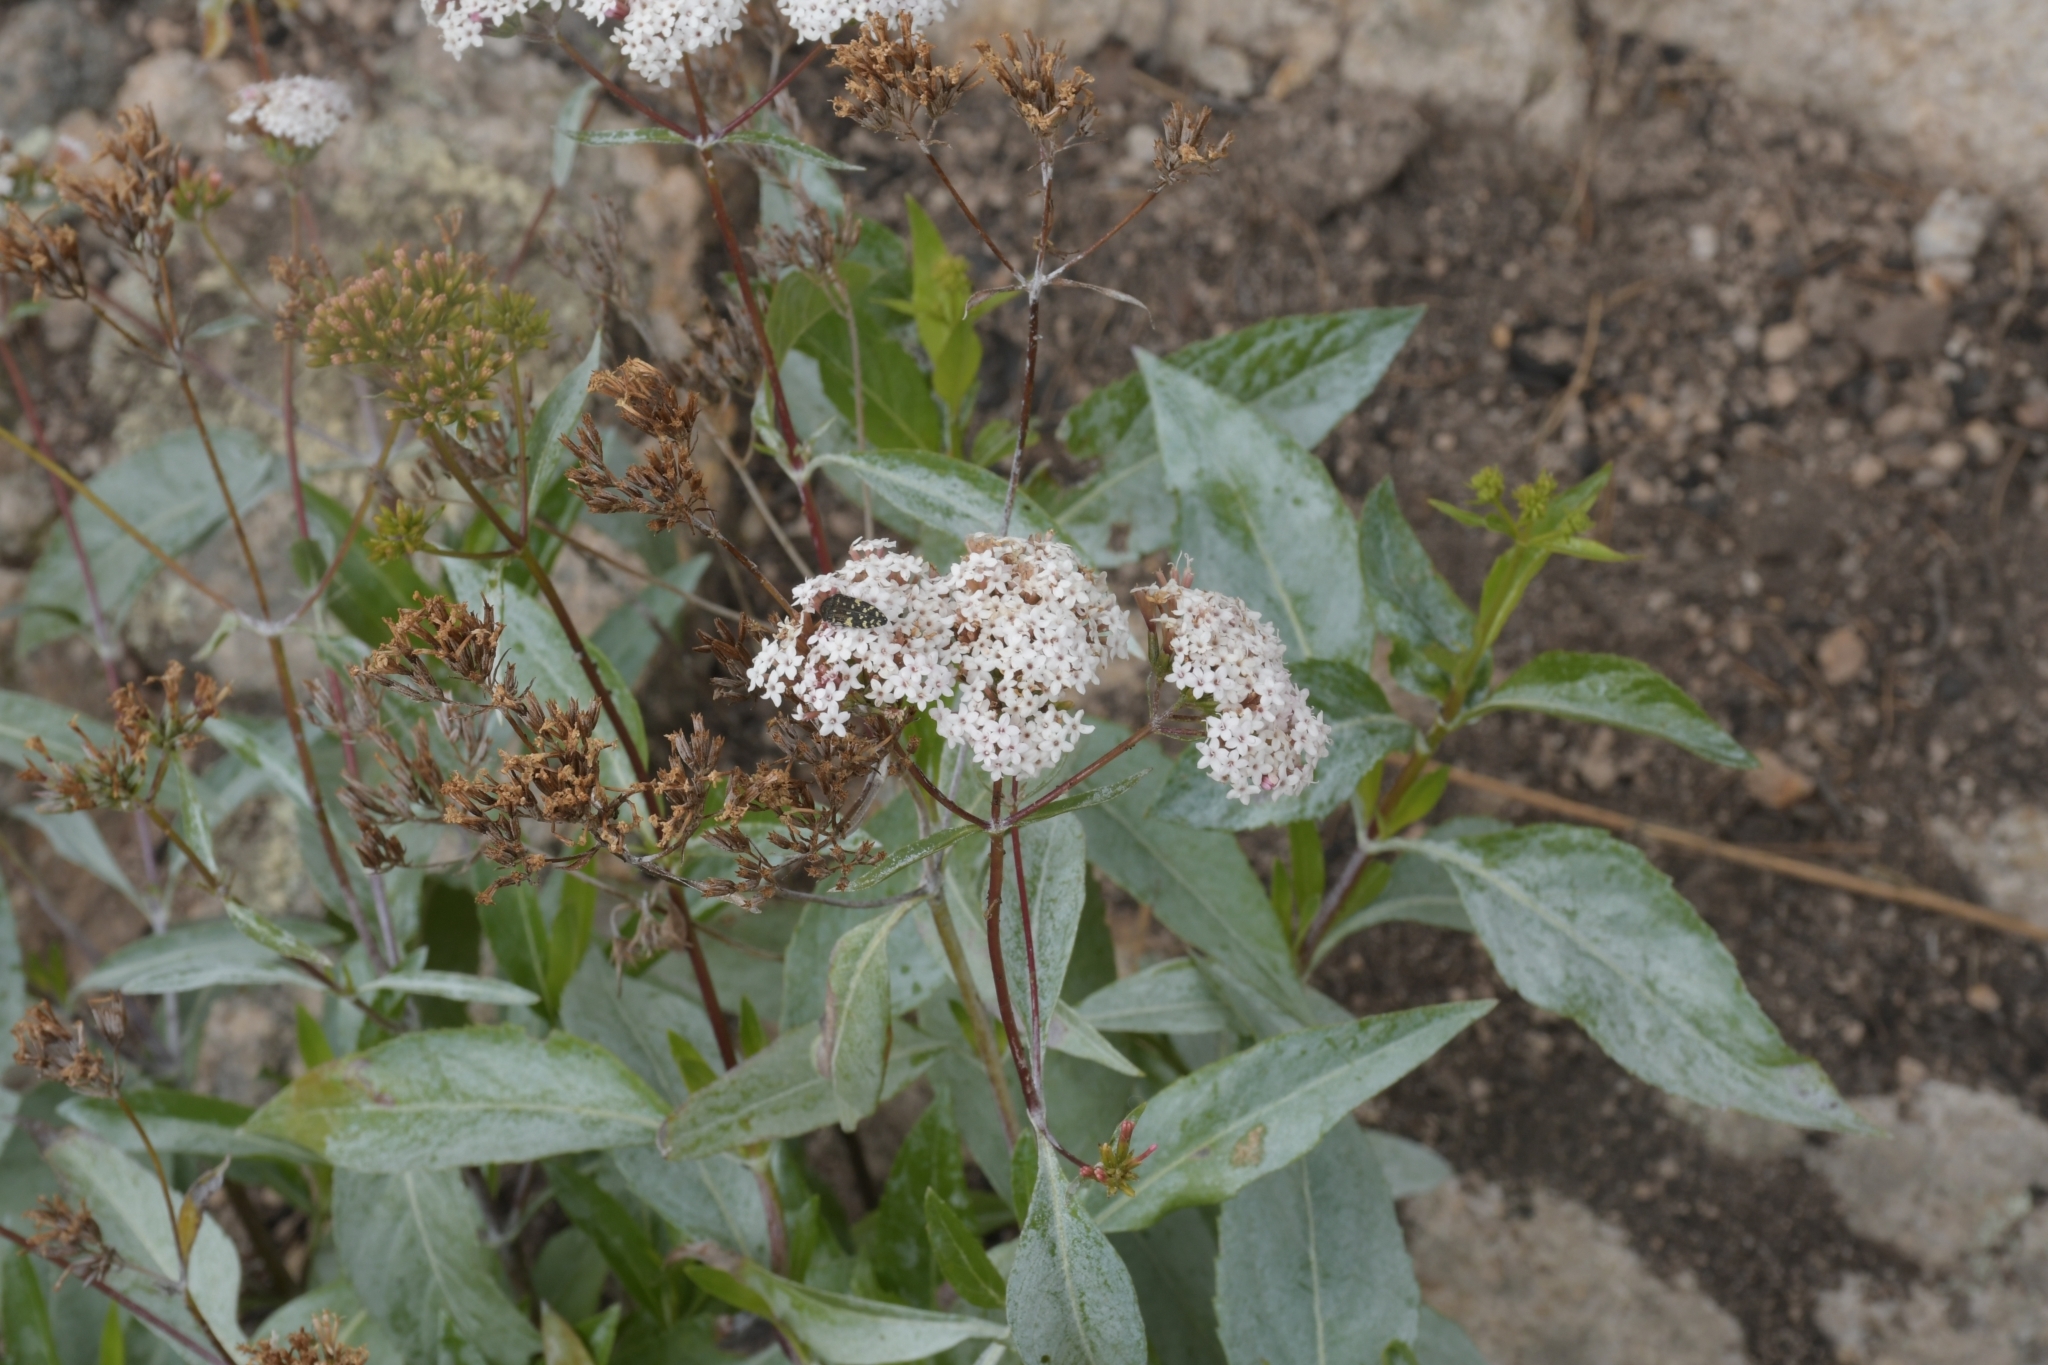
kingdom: Plantae
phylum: Tracheophyta
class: Magnoliopsida
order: Asterales
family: Asteraceae
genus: Stevia
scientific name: Stevia lucida
